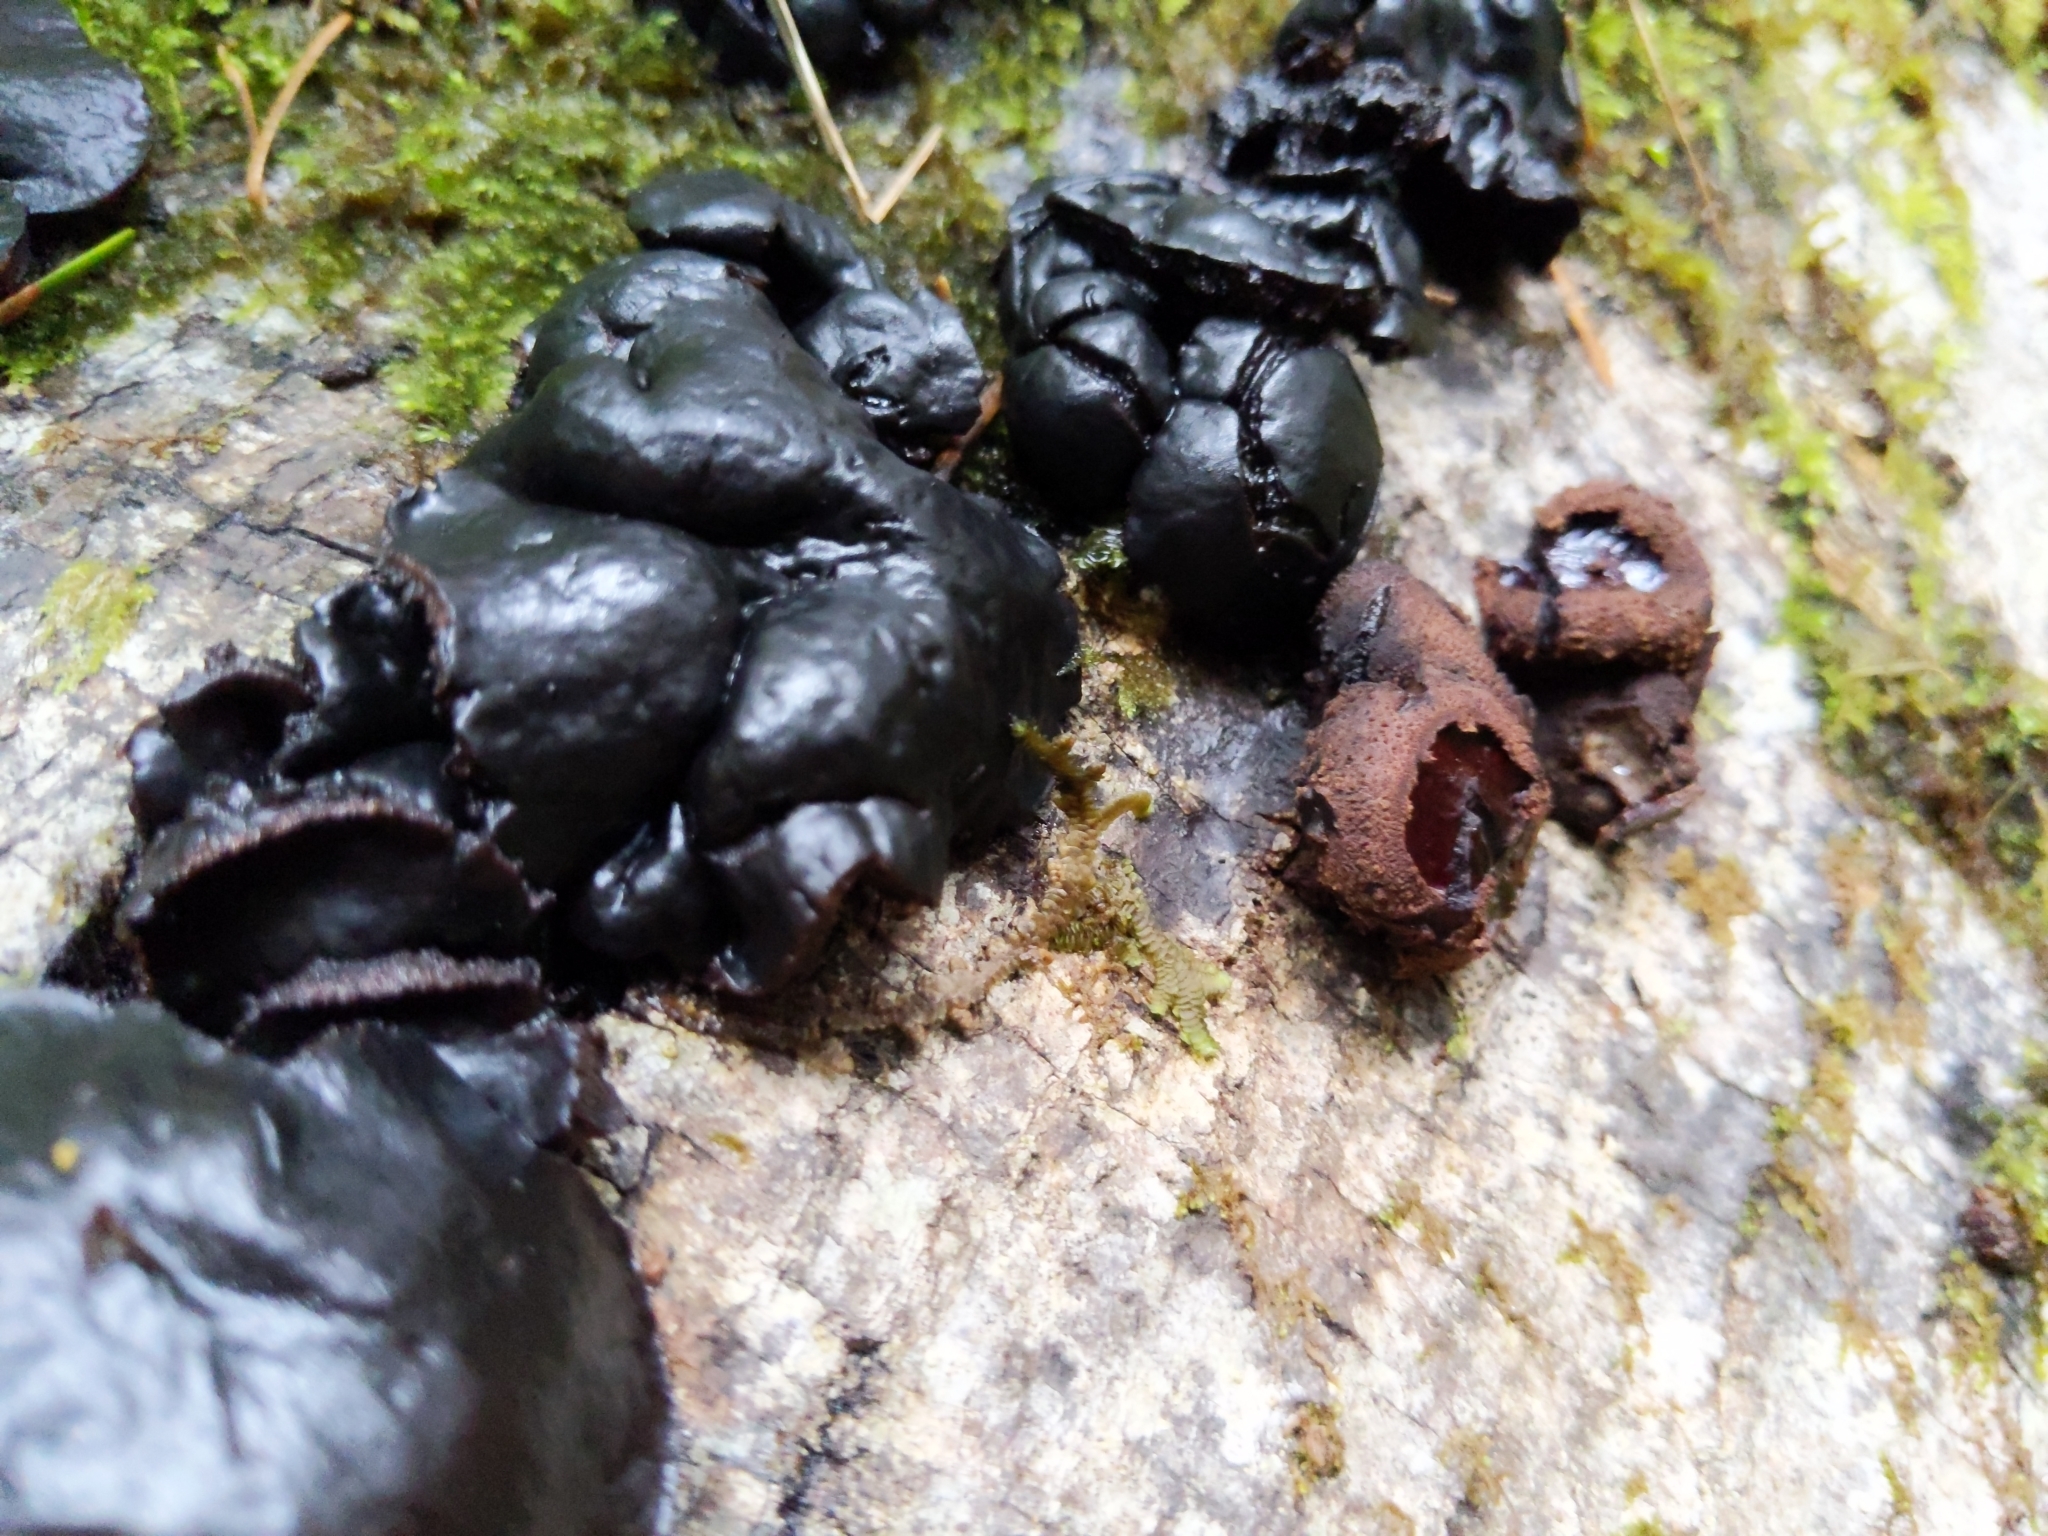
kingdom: Fungi
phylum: Ascomycota
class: Leotiomycetes
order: Phacidiales
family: Phacidiaceae
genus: Bulgaria
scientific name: Bulgaria inquinans
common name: Black bulgar
